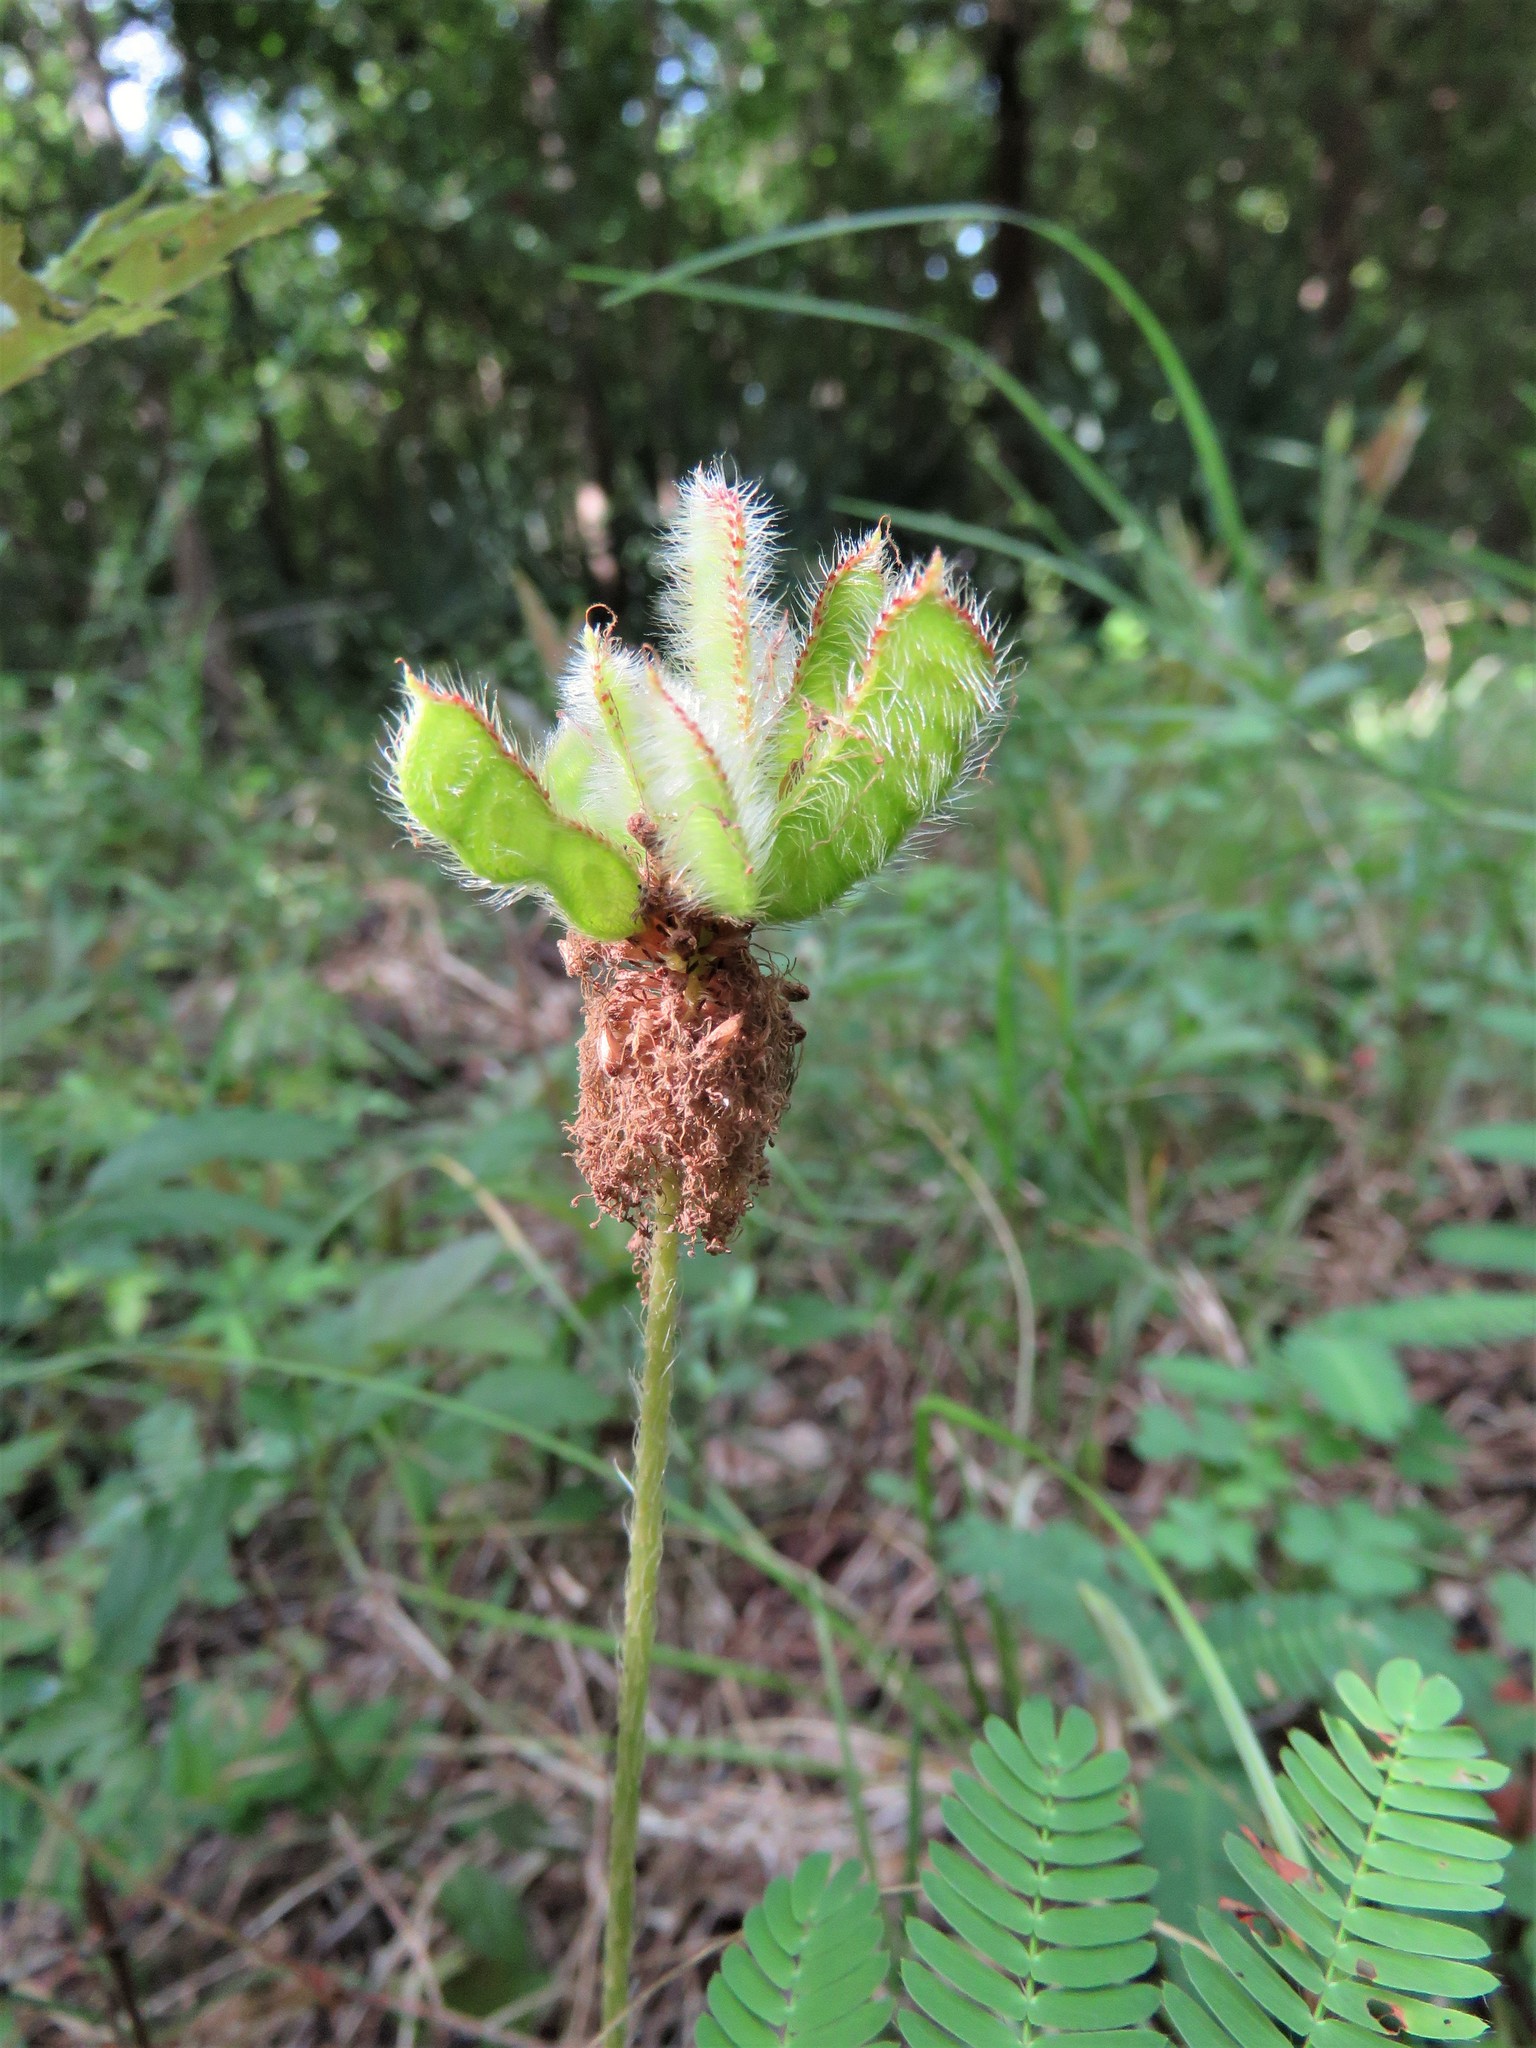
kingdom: Plantae
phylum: Tracheophyta
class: Magnoliopsida
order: Fabales
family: Fabaceae
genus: Mimosa
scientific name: Mimosa strigillosa
